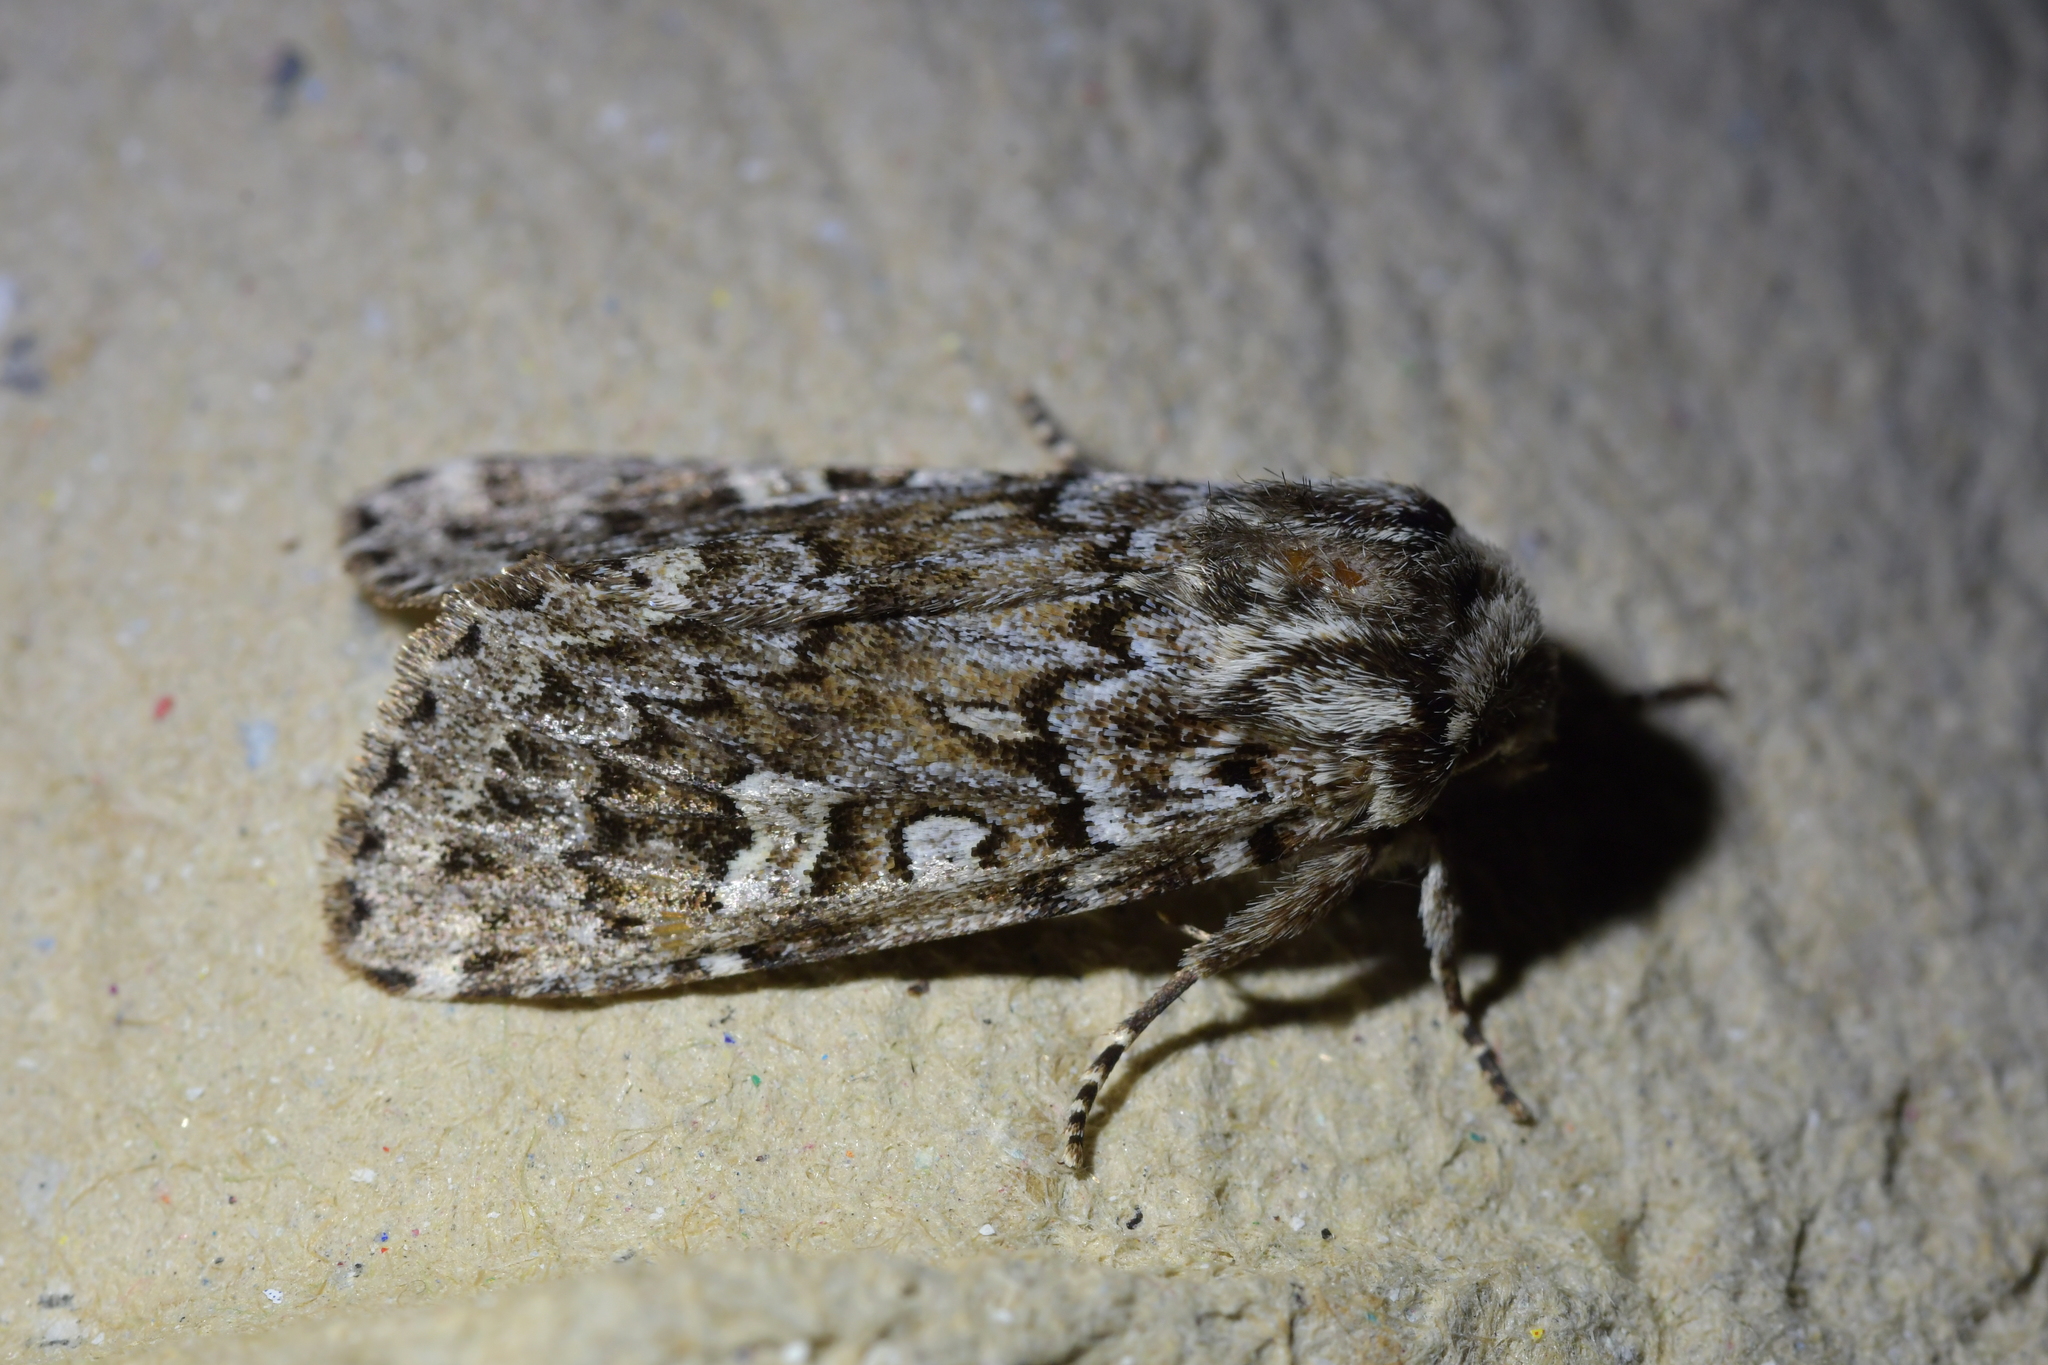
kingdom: Animalia
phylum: Arthropoda
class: Insecta
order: Lepidoptera
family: Noctuidae
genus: Ichneutica
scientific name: Ichneutica marmorata
